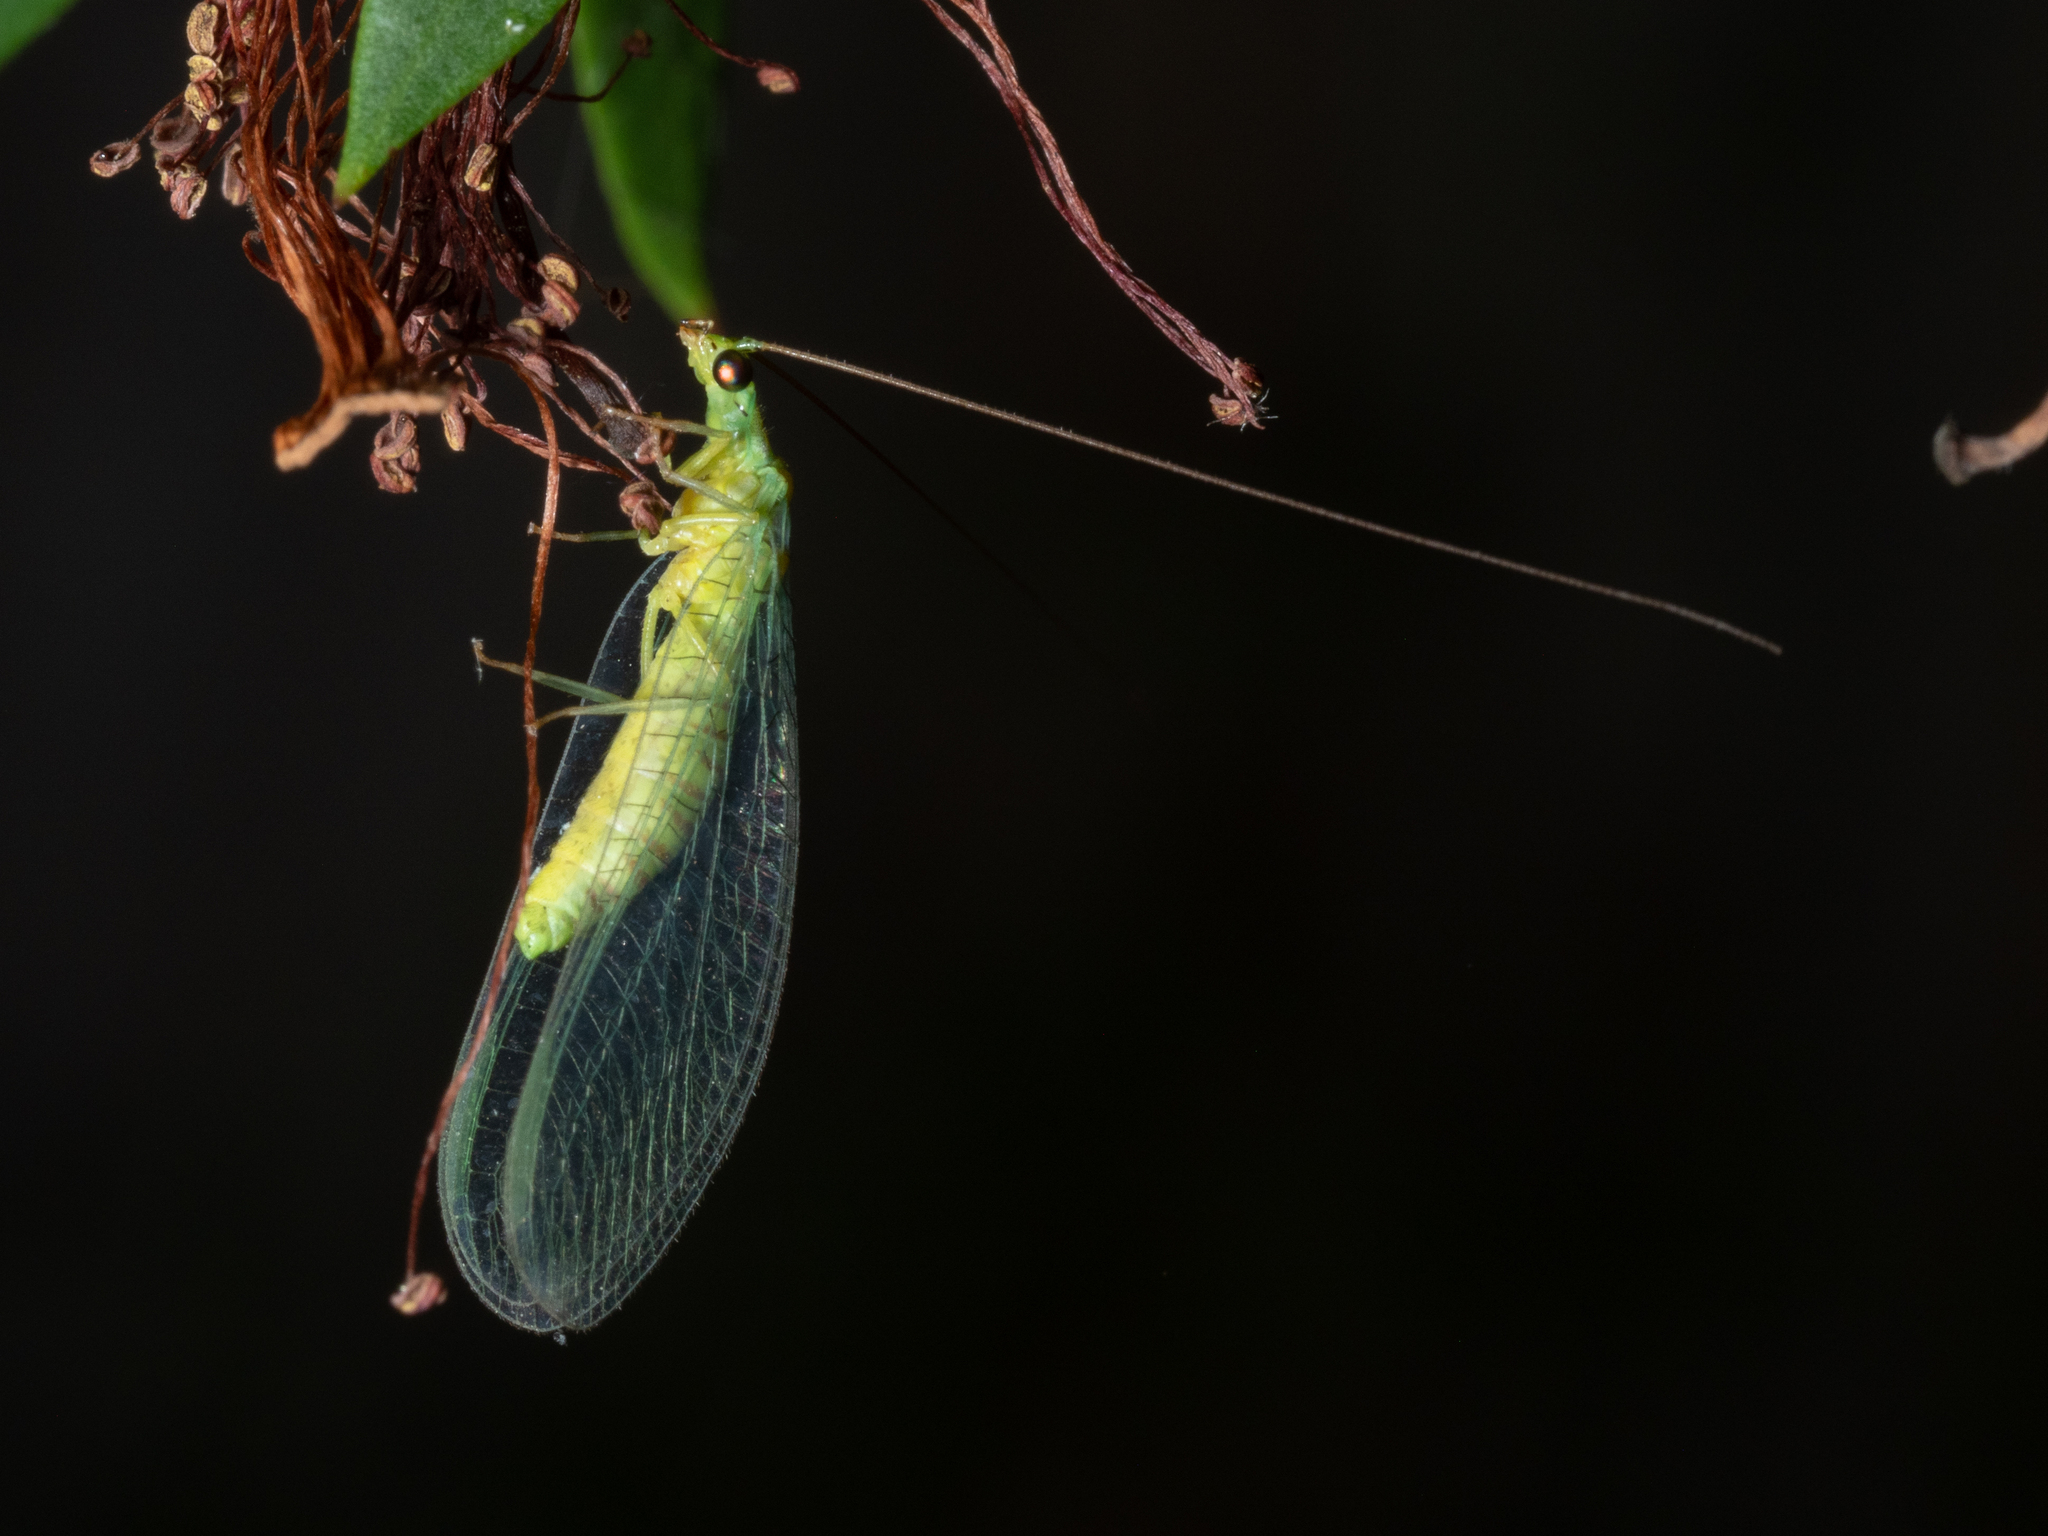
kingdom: Animalia
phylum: Arthropoda
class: Insecta
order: Neuroptera
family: Chrysopidae
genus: Mallada
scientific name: Mallada signatus
